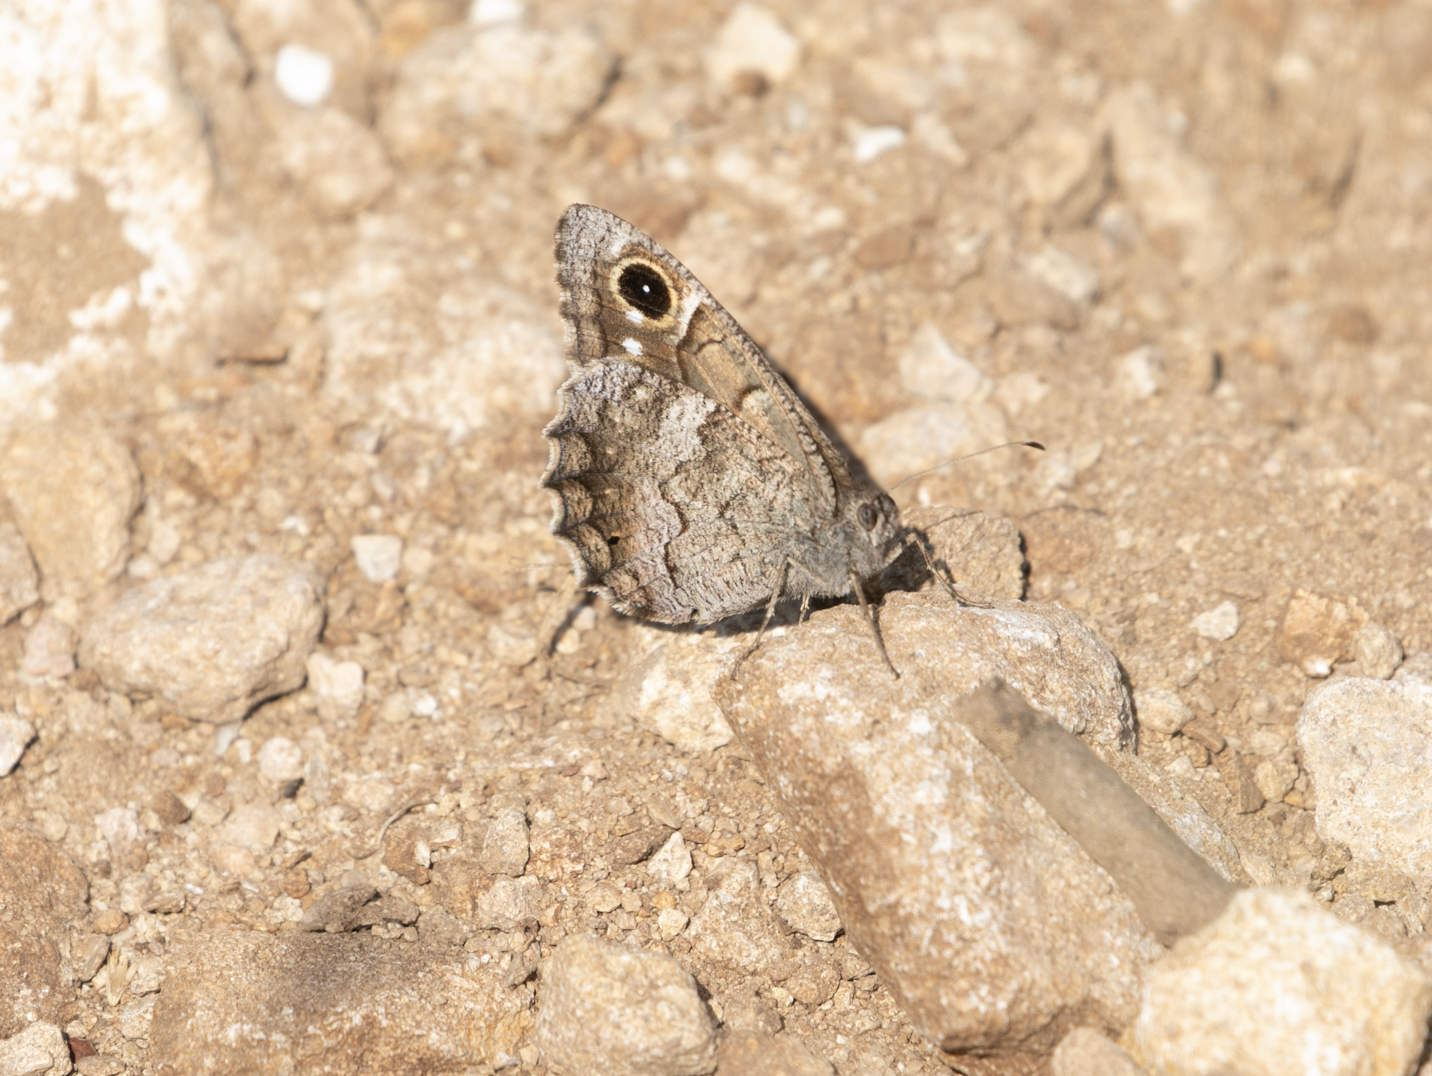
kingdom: Animalia
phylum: Arthropoda
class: Insecta
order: Lepidoptera
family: Nymphalidae
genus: Hipparchia
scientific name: Hipparchia statilinus
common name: Tree grayling
